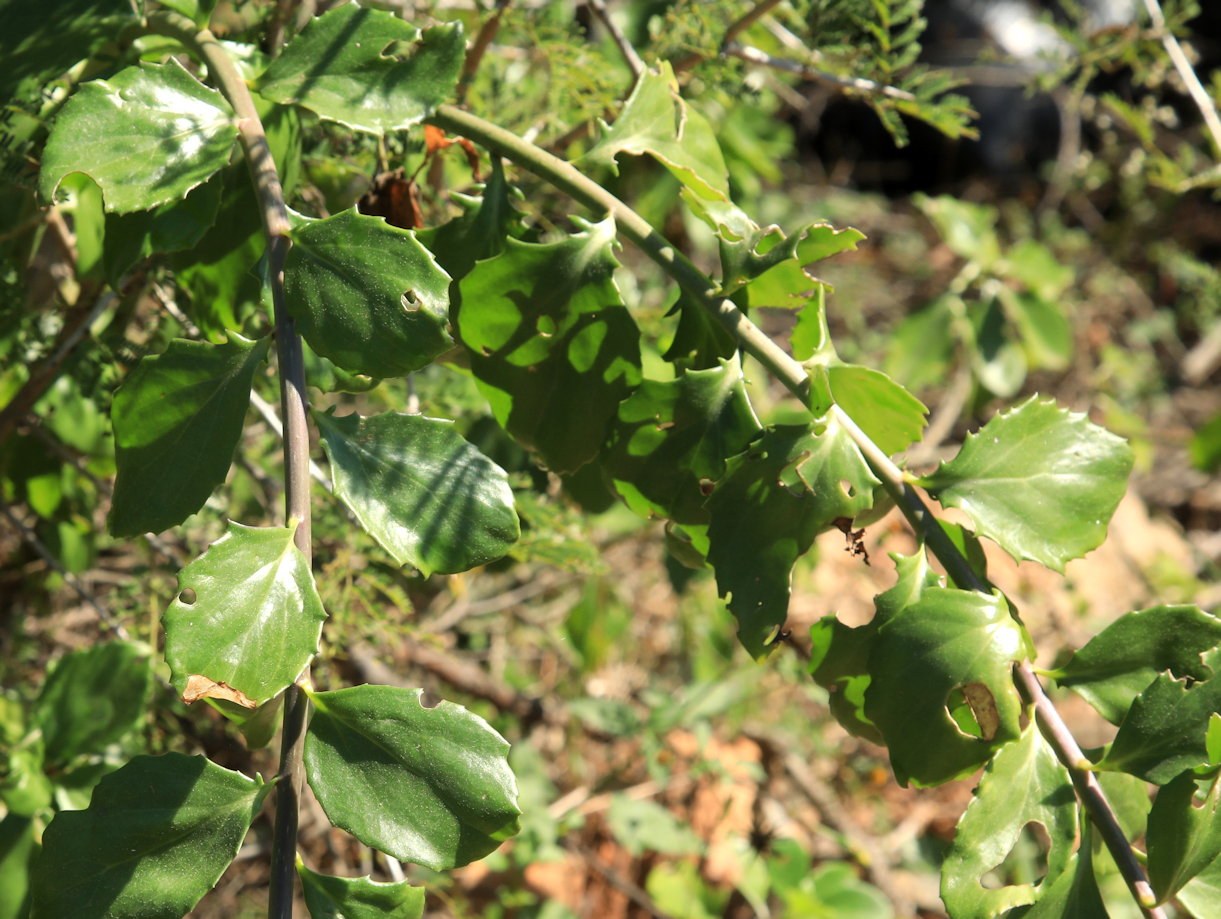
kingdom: Plantae
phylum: Tracheophyta
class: Magnoliopsida
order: Asterales
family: Asteraceae
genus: Senecio
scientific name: Senecio brachypodus
